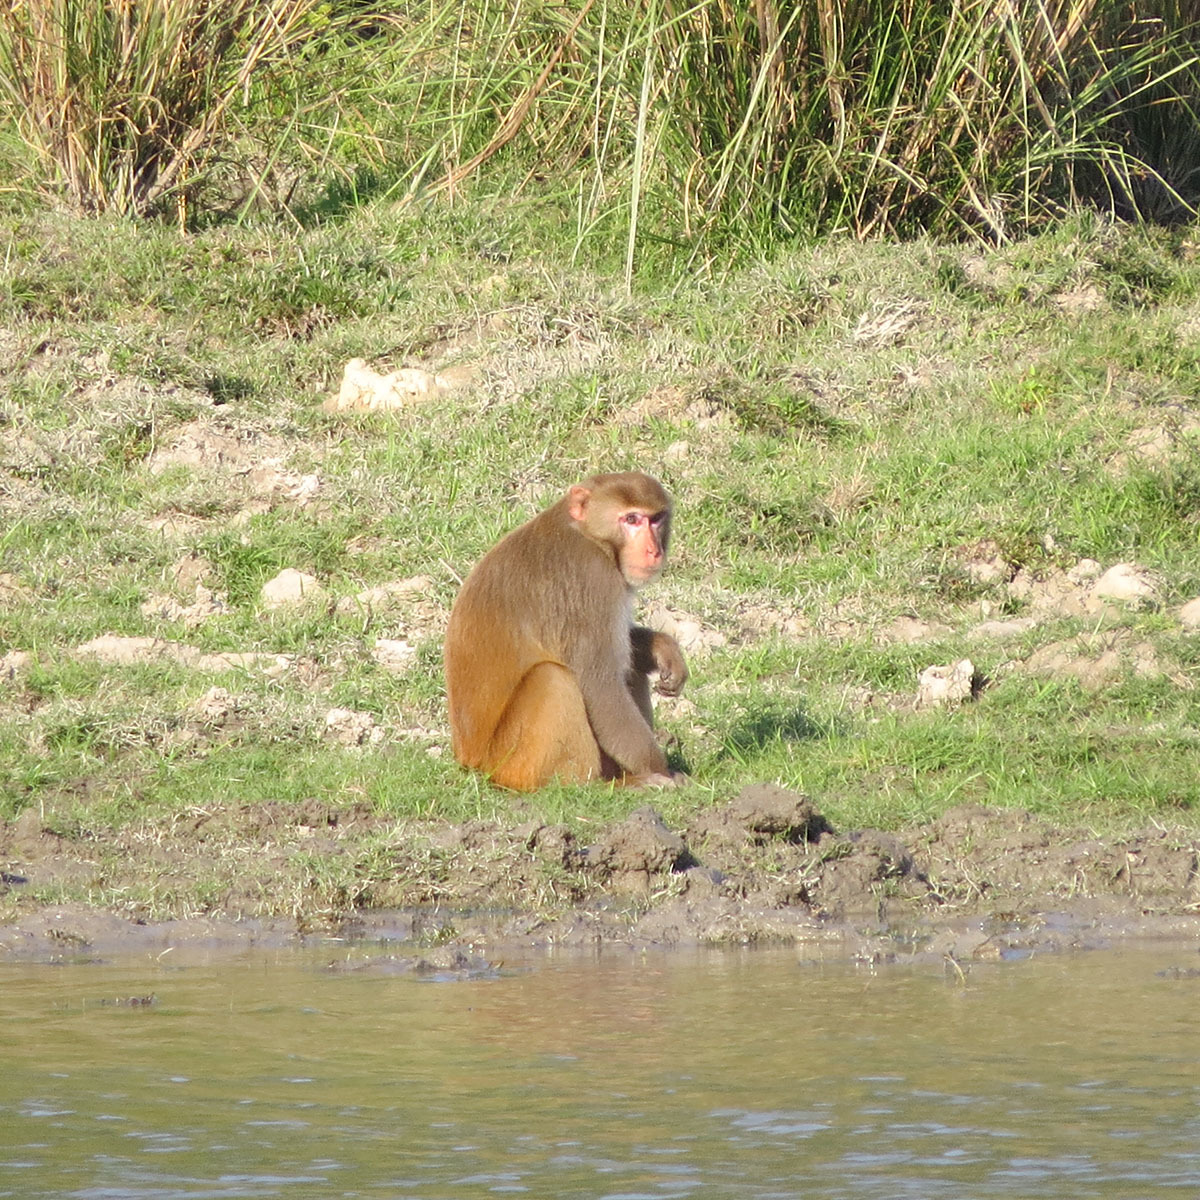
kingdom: Animalia
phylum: Chordata
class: Mammalia
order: Primates
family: Cercopithecidae
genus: Macaca
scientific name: Macaca mulatta
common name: Rhesus monkey
